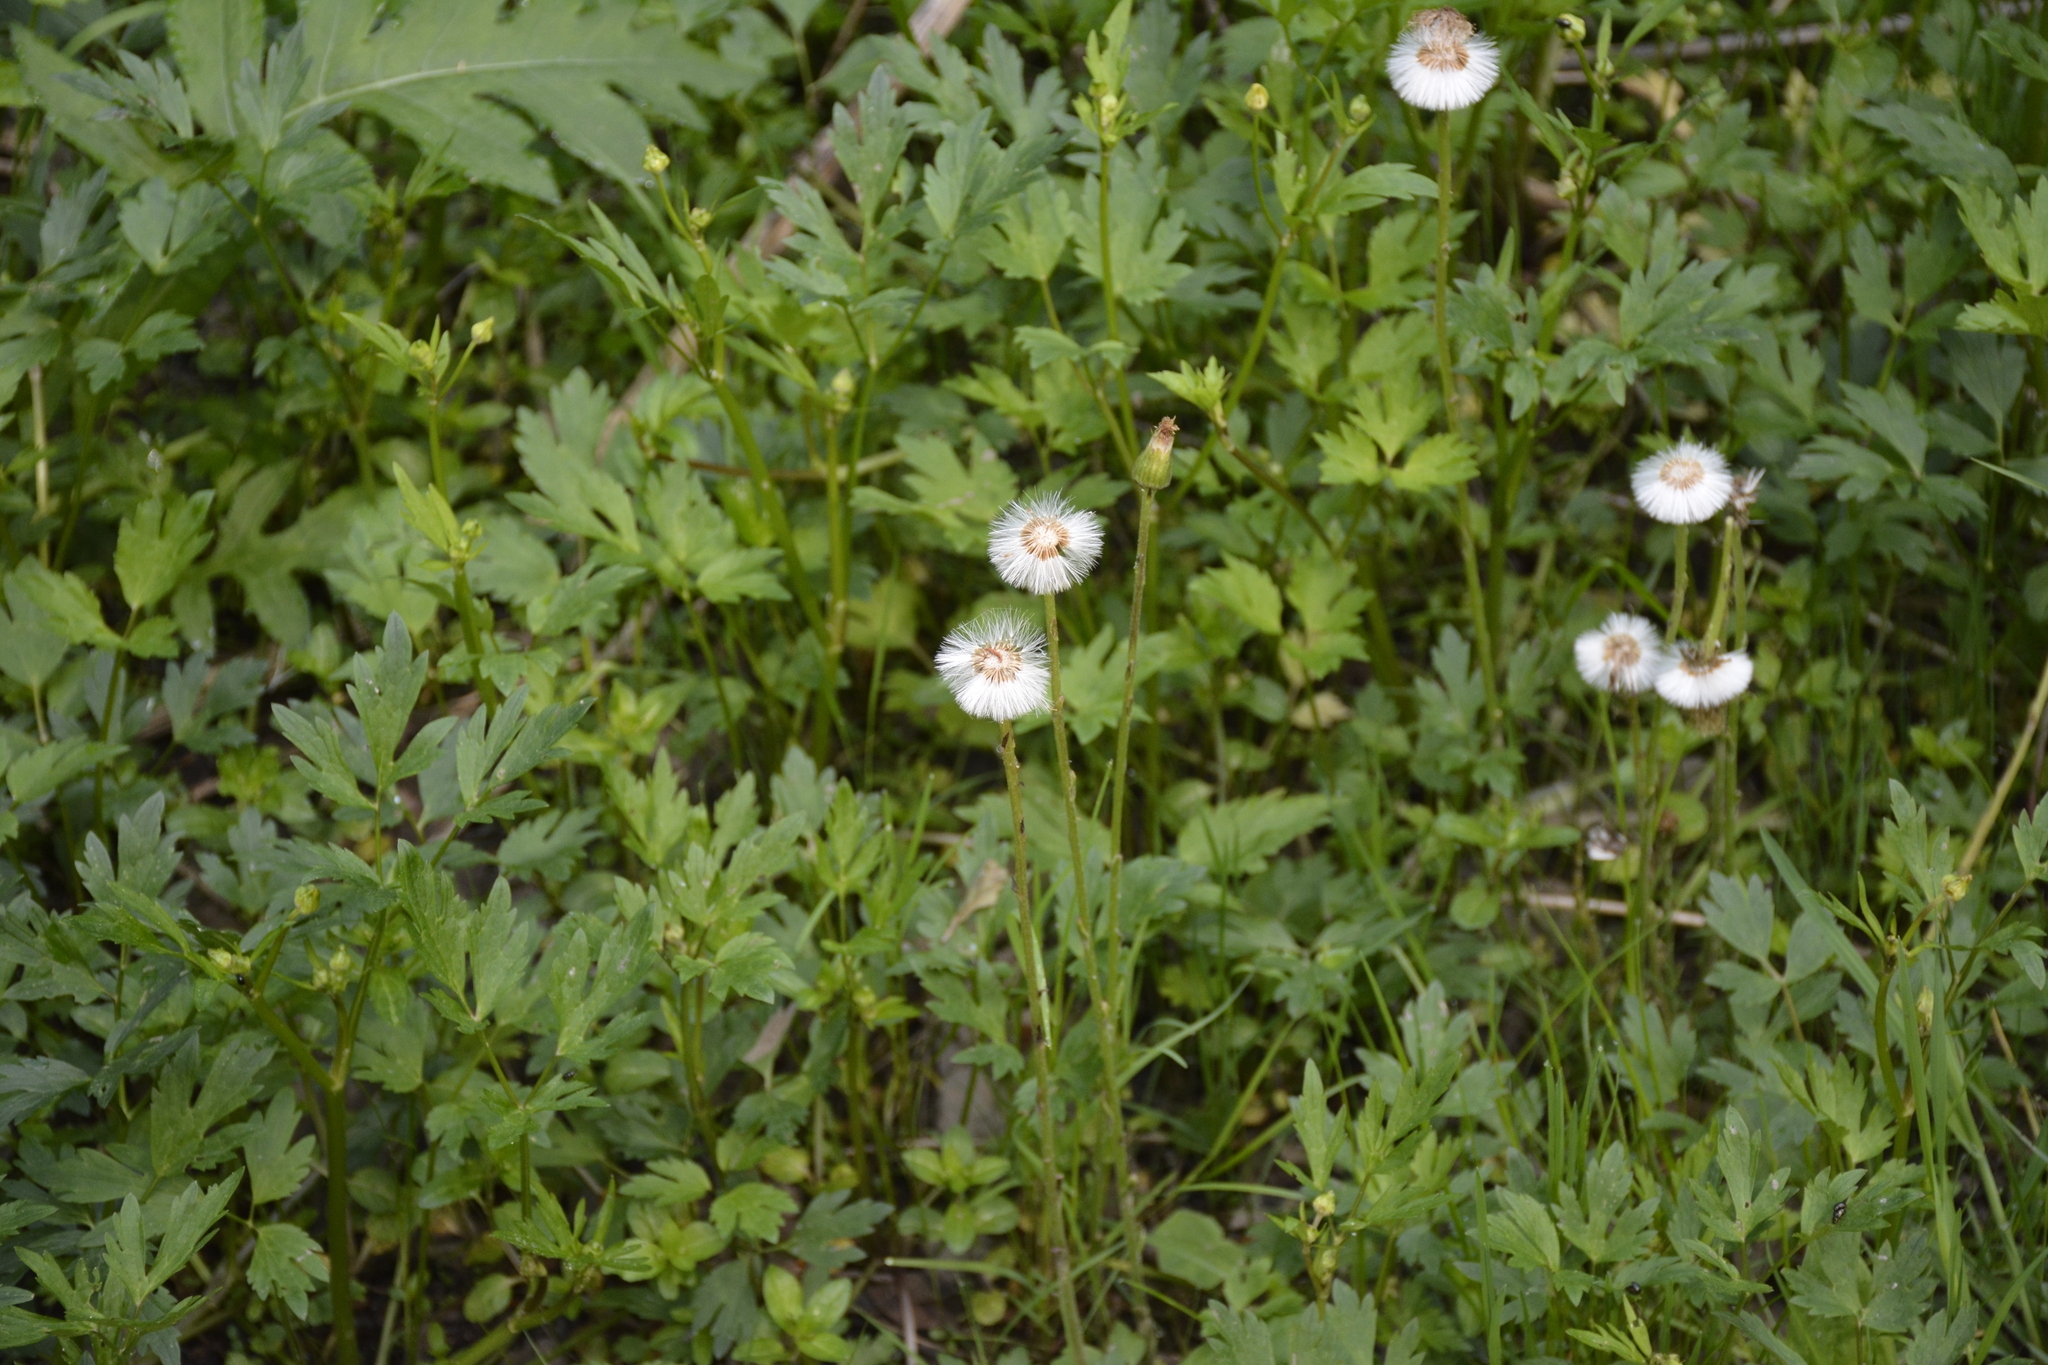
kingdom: Plantae
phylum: Tracheophyta
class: Magnoliopsida
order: Asterales
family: Asteraceae
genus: Tussilago
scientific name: Tussilago farfara
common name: Coltsfoot
